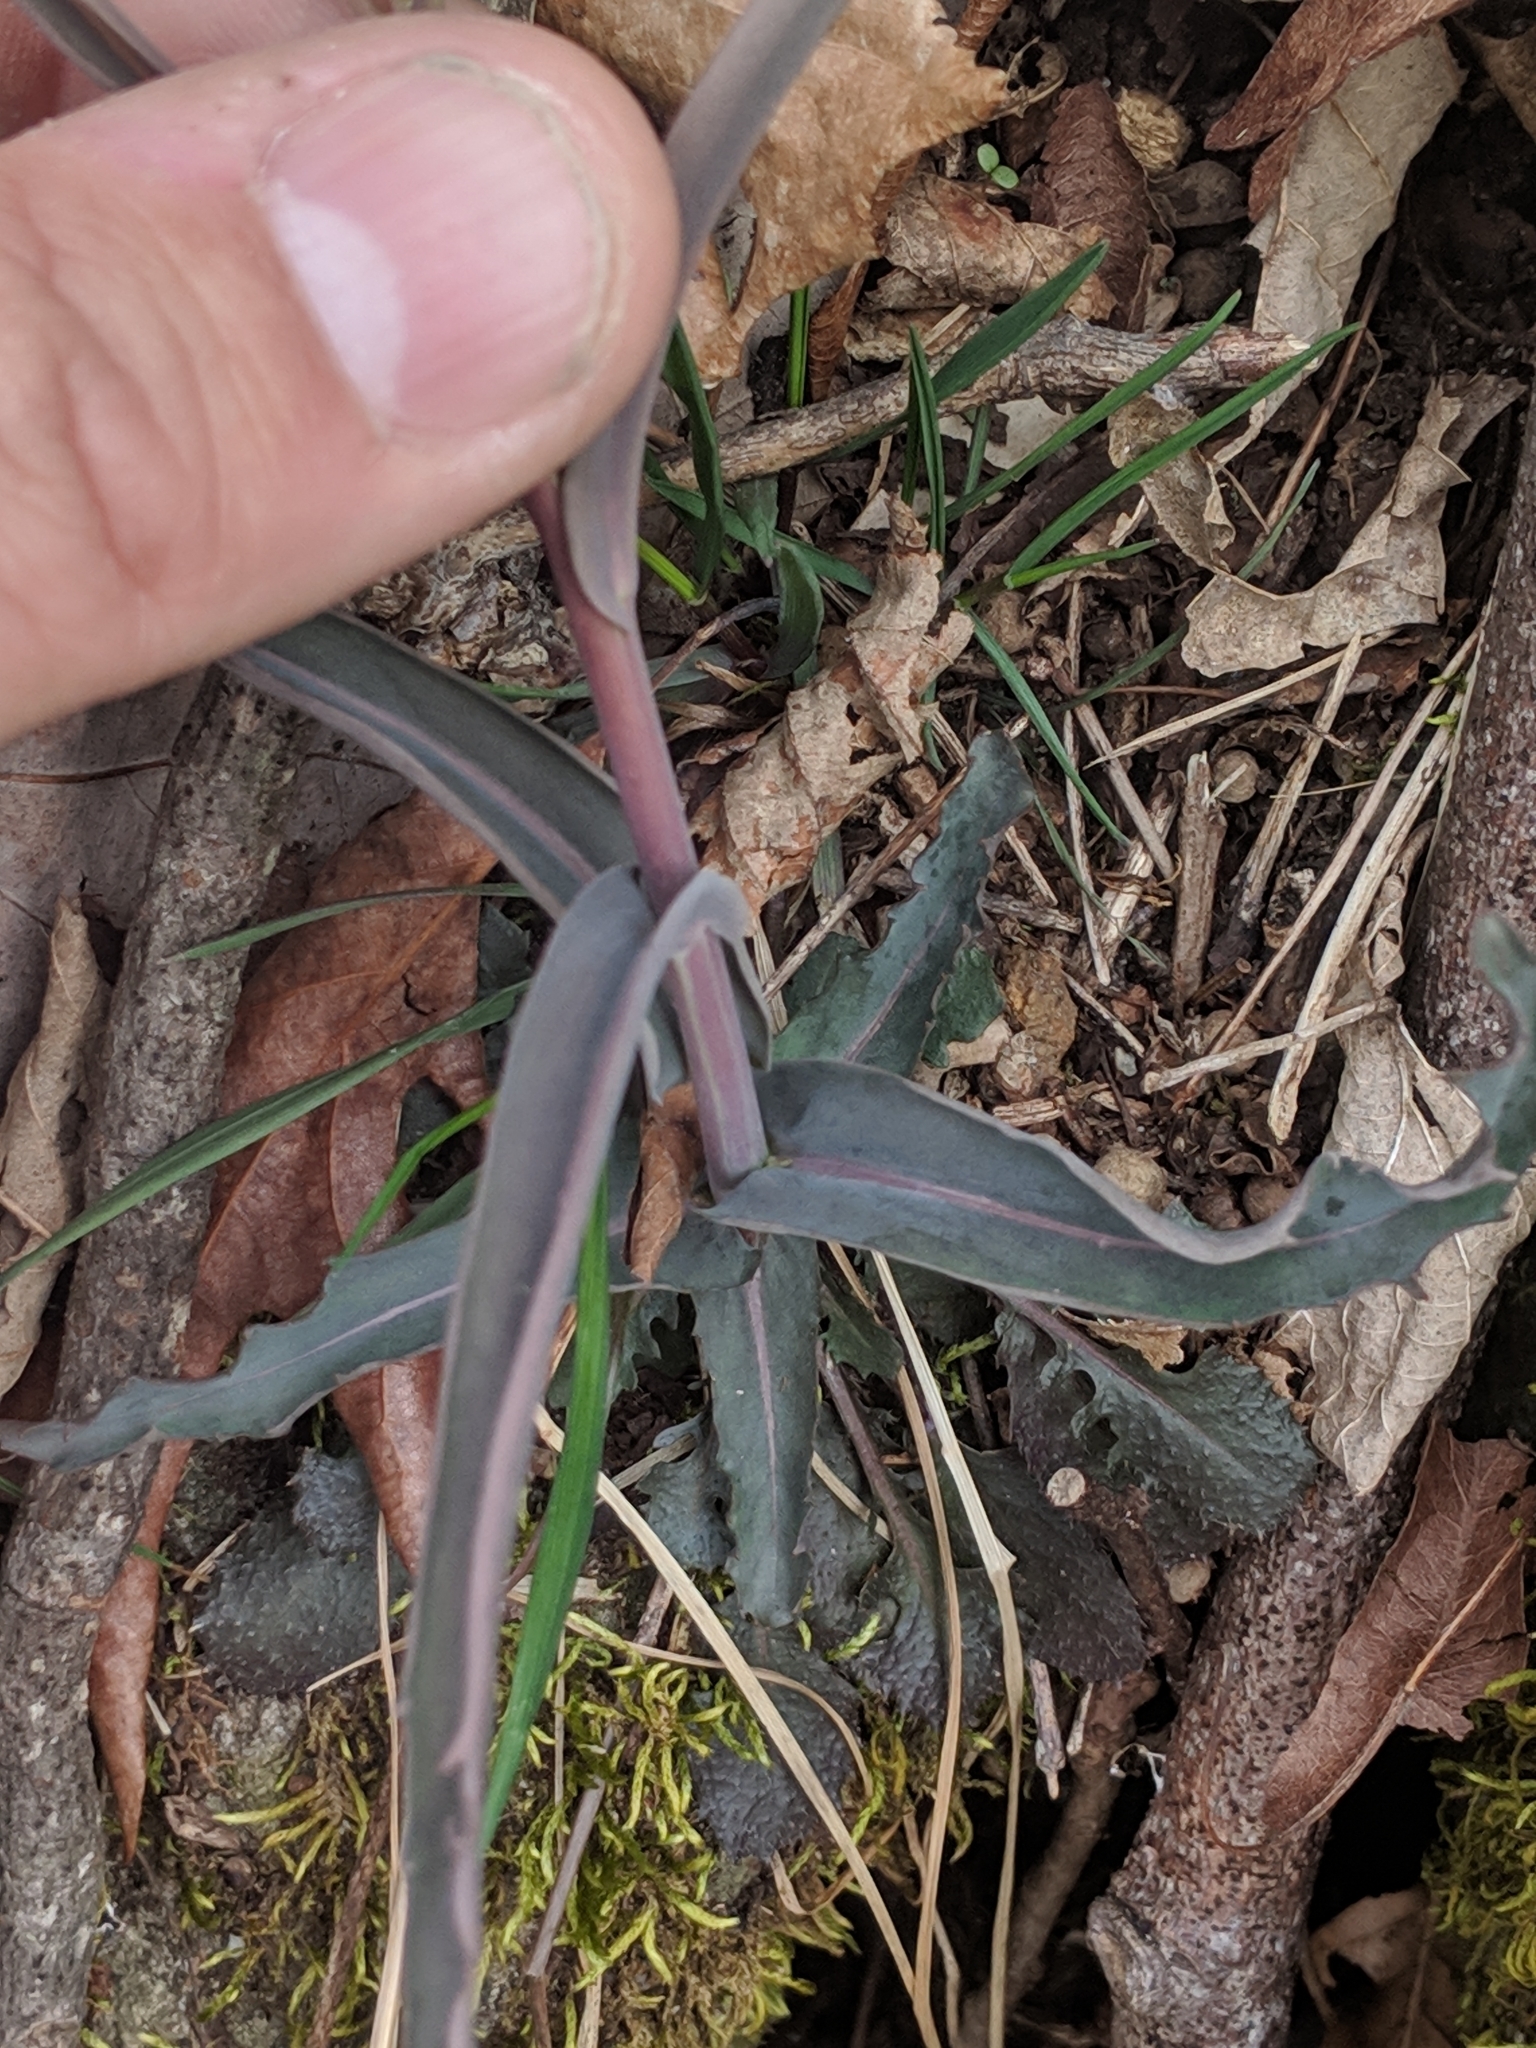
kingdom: Plantae
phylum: Tracheophyta
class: Magnoliopsida
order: Brassicales
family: Brassicaceae
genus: Borodinia
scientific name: Borodinia laevigata
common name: Smooth rockcress
